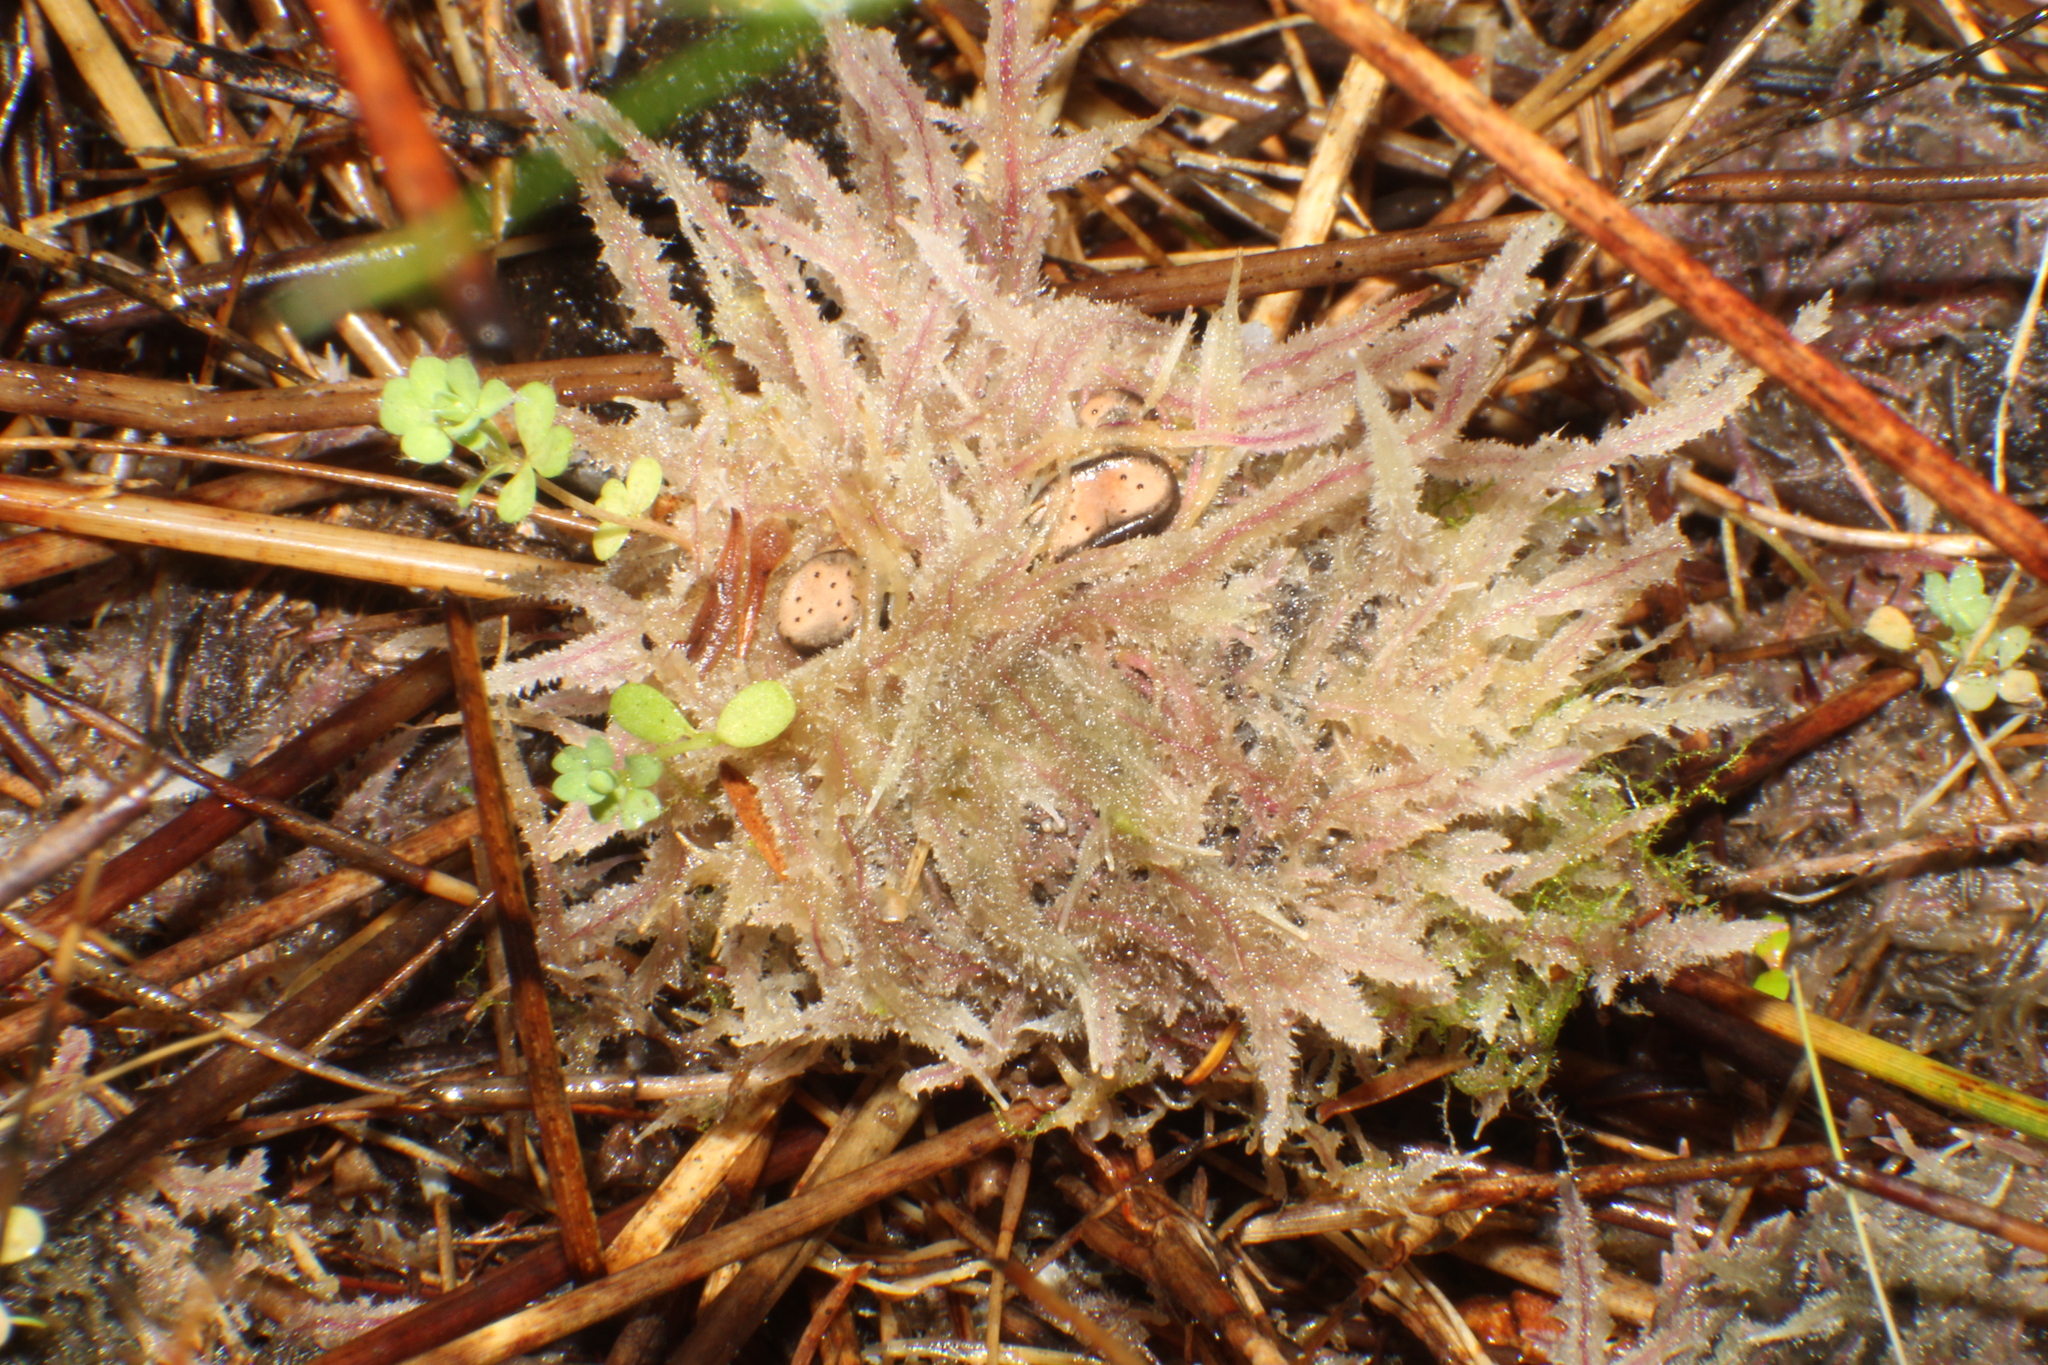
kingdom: Fungi
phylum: Ascomycota
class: Sordariomycetes
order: Xylariales
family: Xylariaceae
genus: Poronia
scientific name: Poronia erici
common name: Dung button
